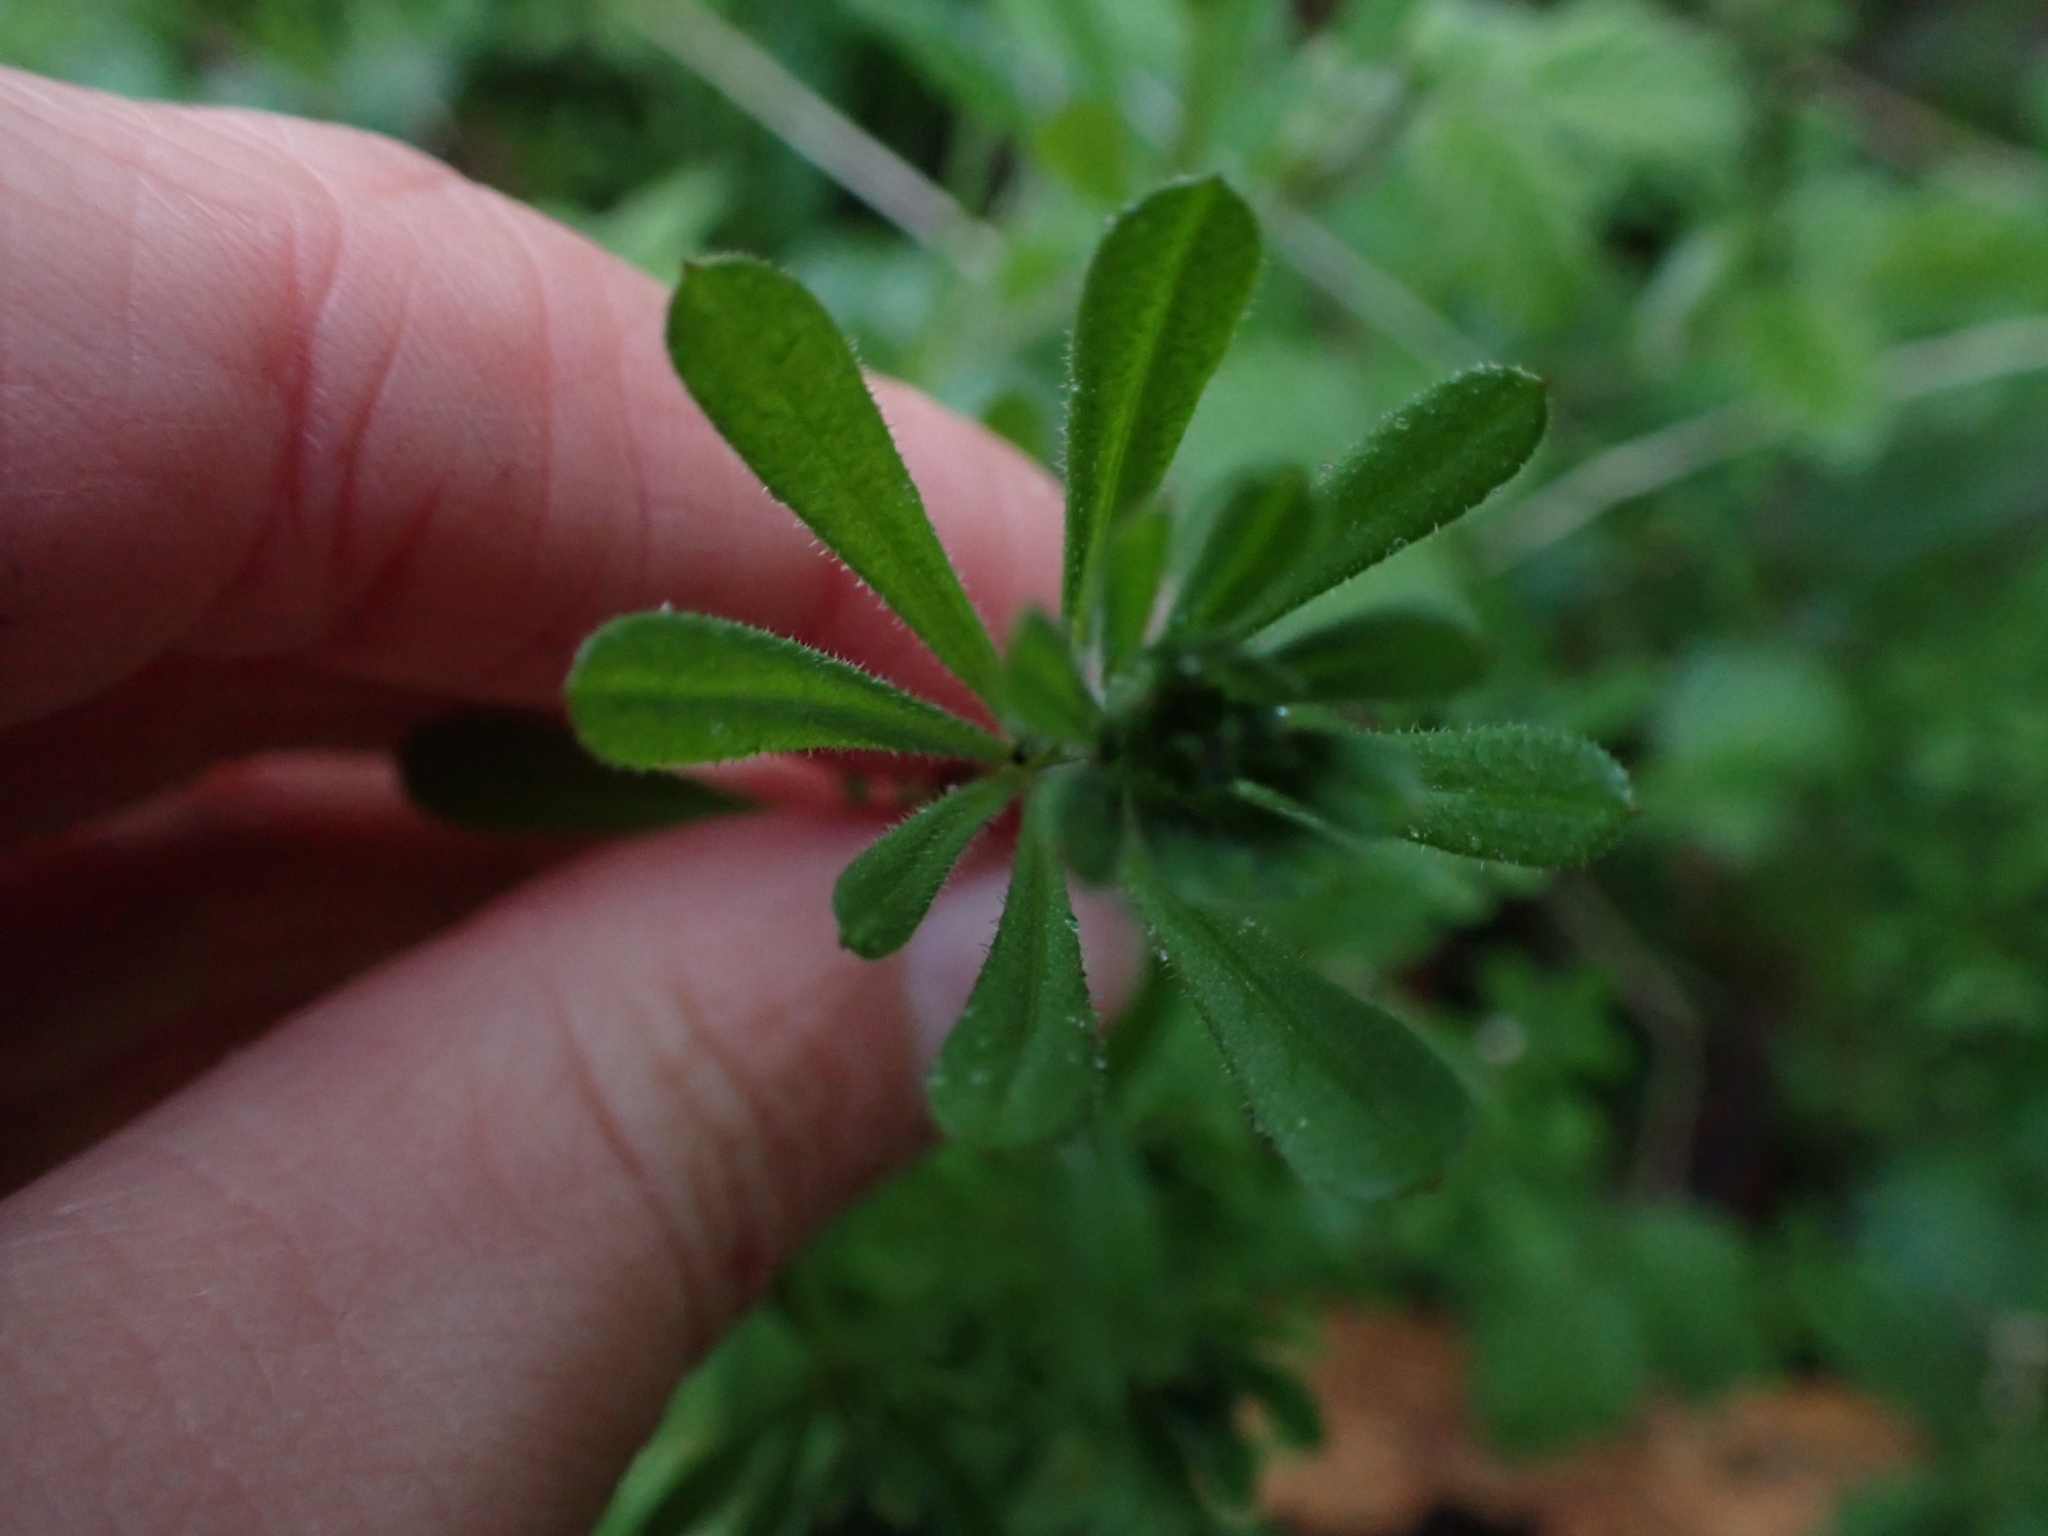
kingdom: Plantae
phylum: Tracheophyta
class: Magnoliopsida
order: Gentianales
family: Rubiaceae
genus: Galium
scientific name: Galium aparine
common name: Cleavers
